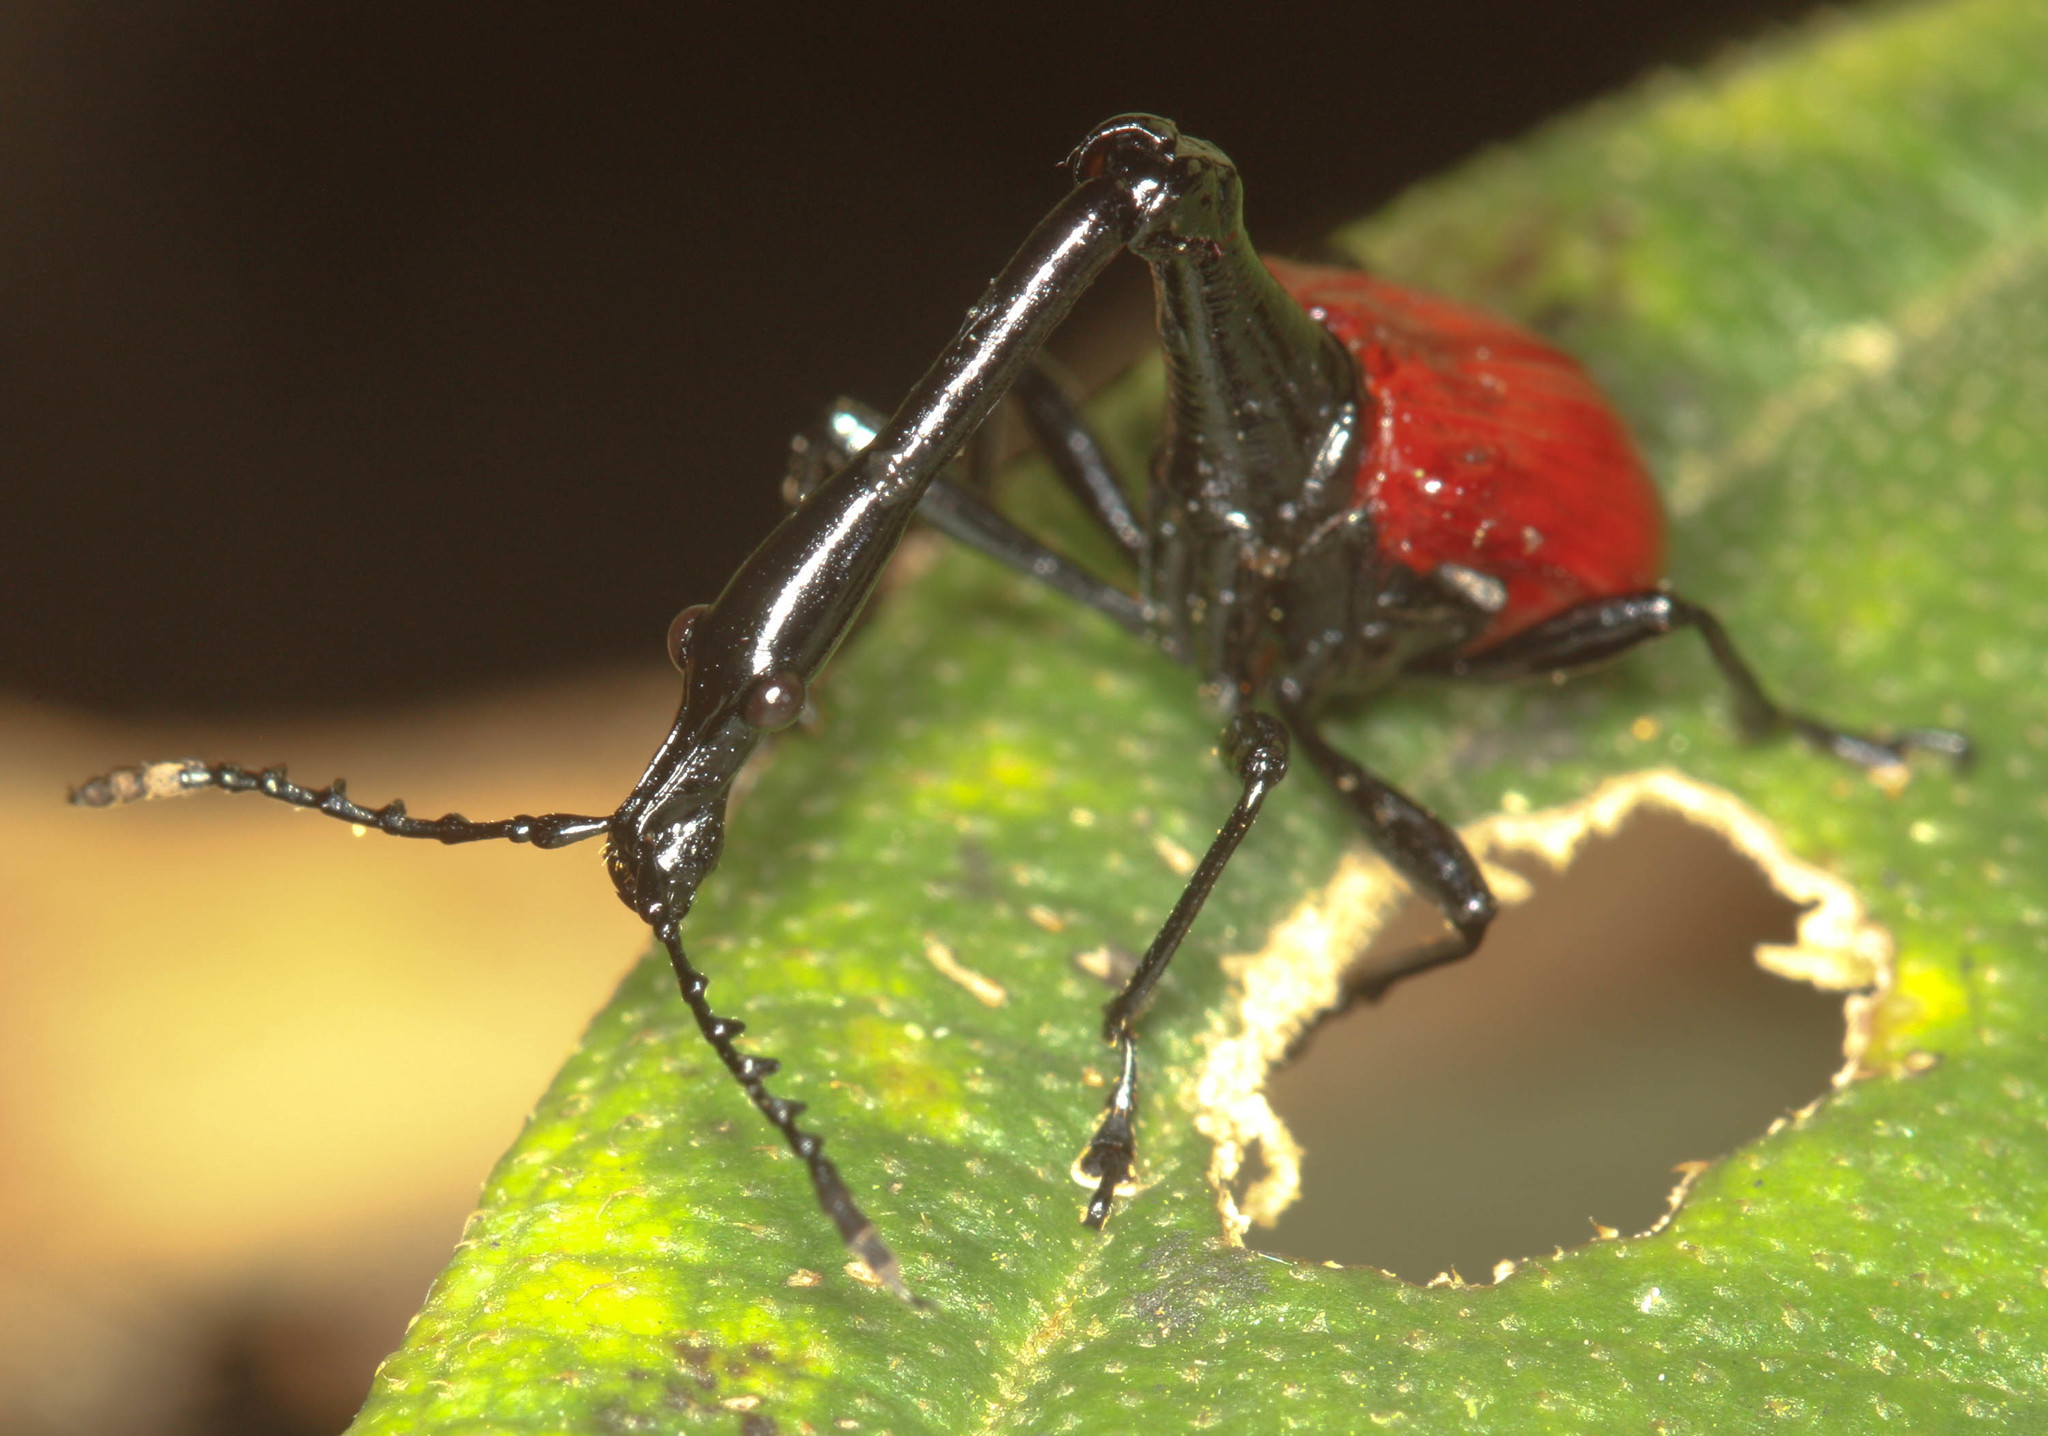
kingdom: Animalia
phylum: Arthropoda
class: Insecta
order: Coleoptera
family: Attelabidae
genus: Trachelophorus
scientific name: Trachelophorus giraffa
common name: Giraffe weevil
